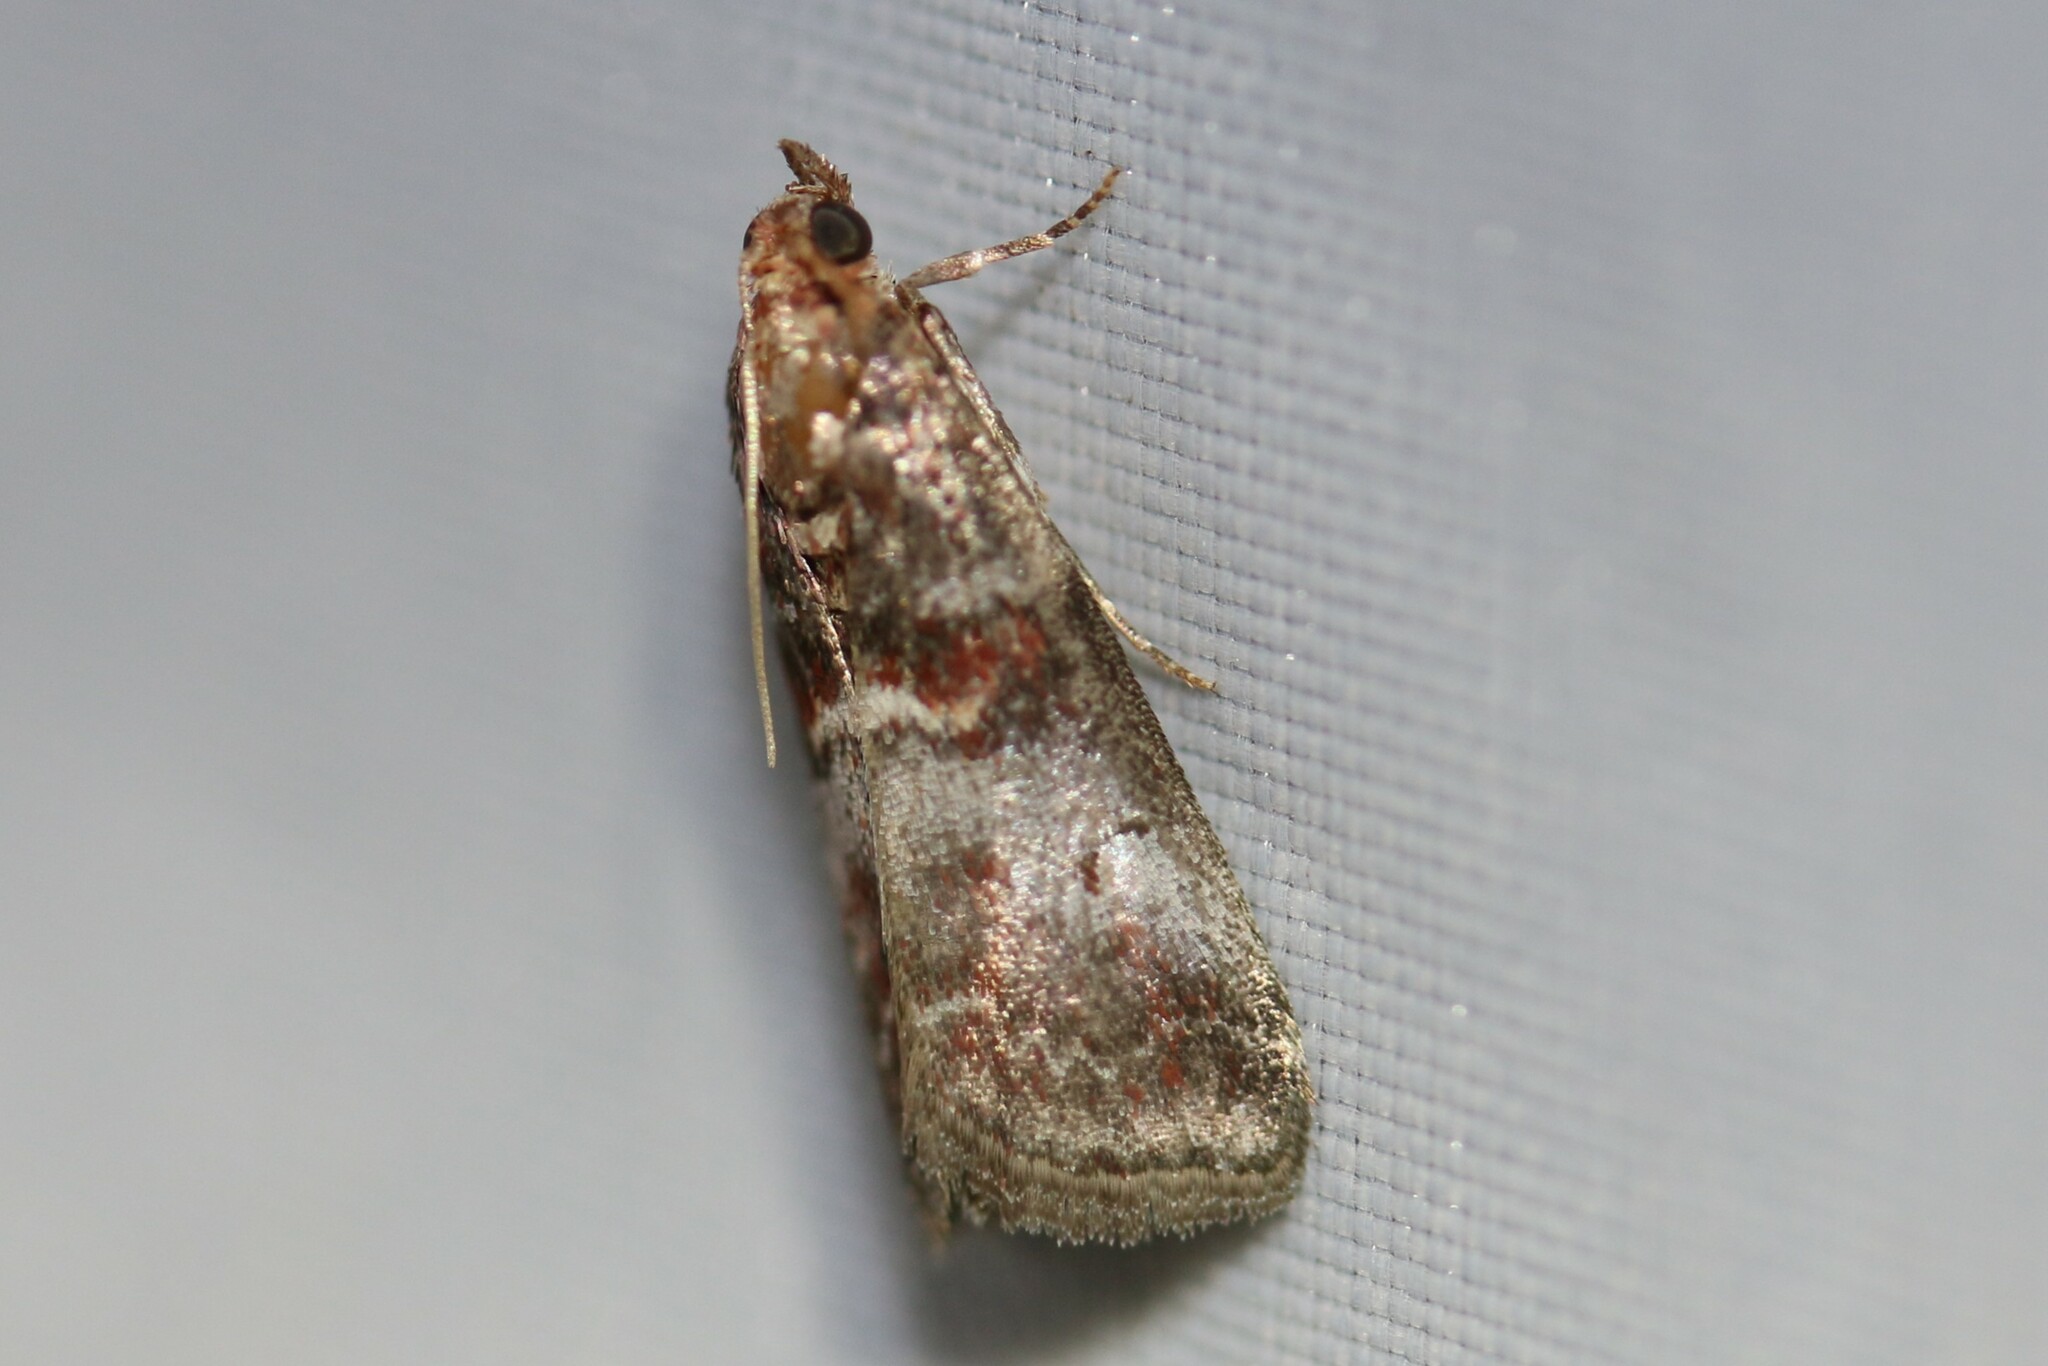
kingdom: Animalia
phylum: Arthropoda
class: Insecta
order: Lepidoptera
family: Pyralidae
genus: Acrobasis
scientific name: Acrobasis advenella
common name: Grey knot-horn
